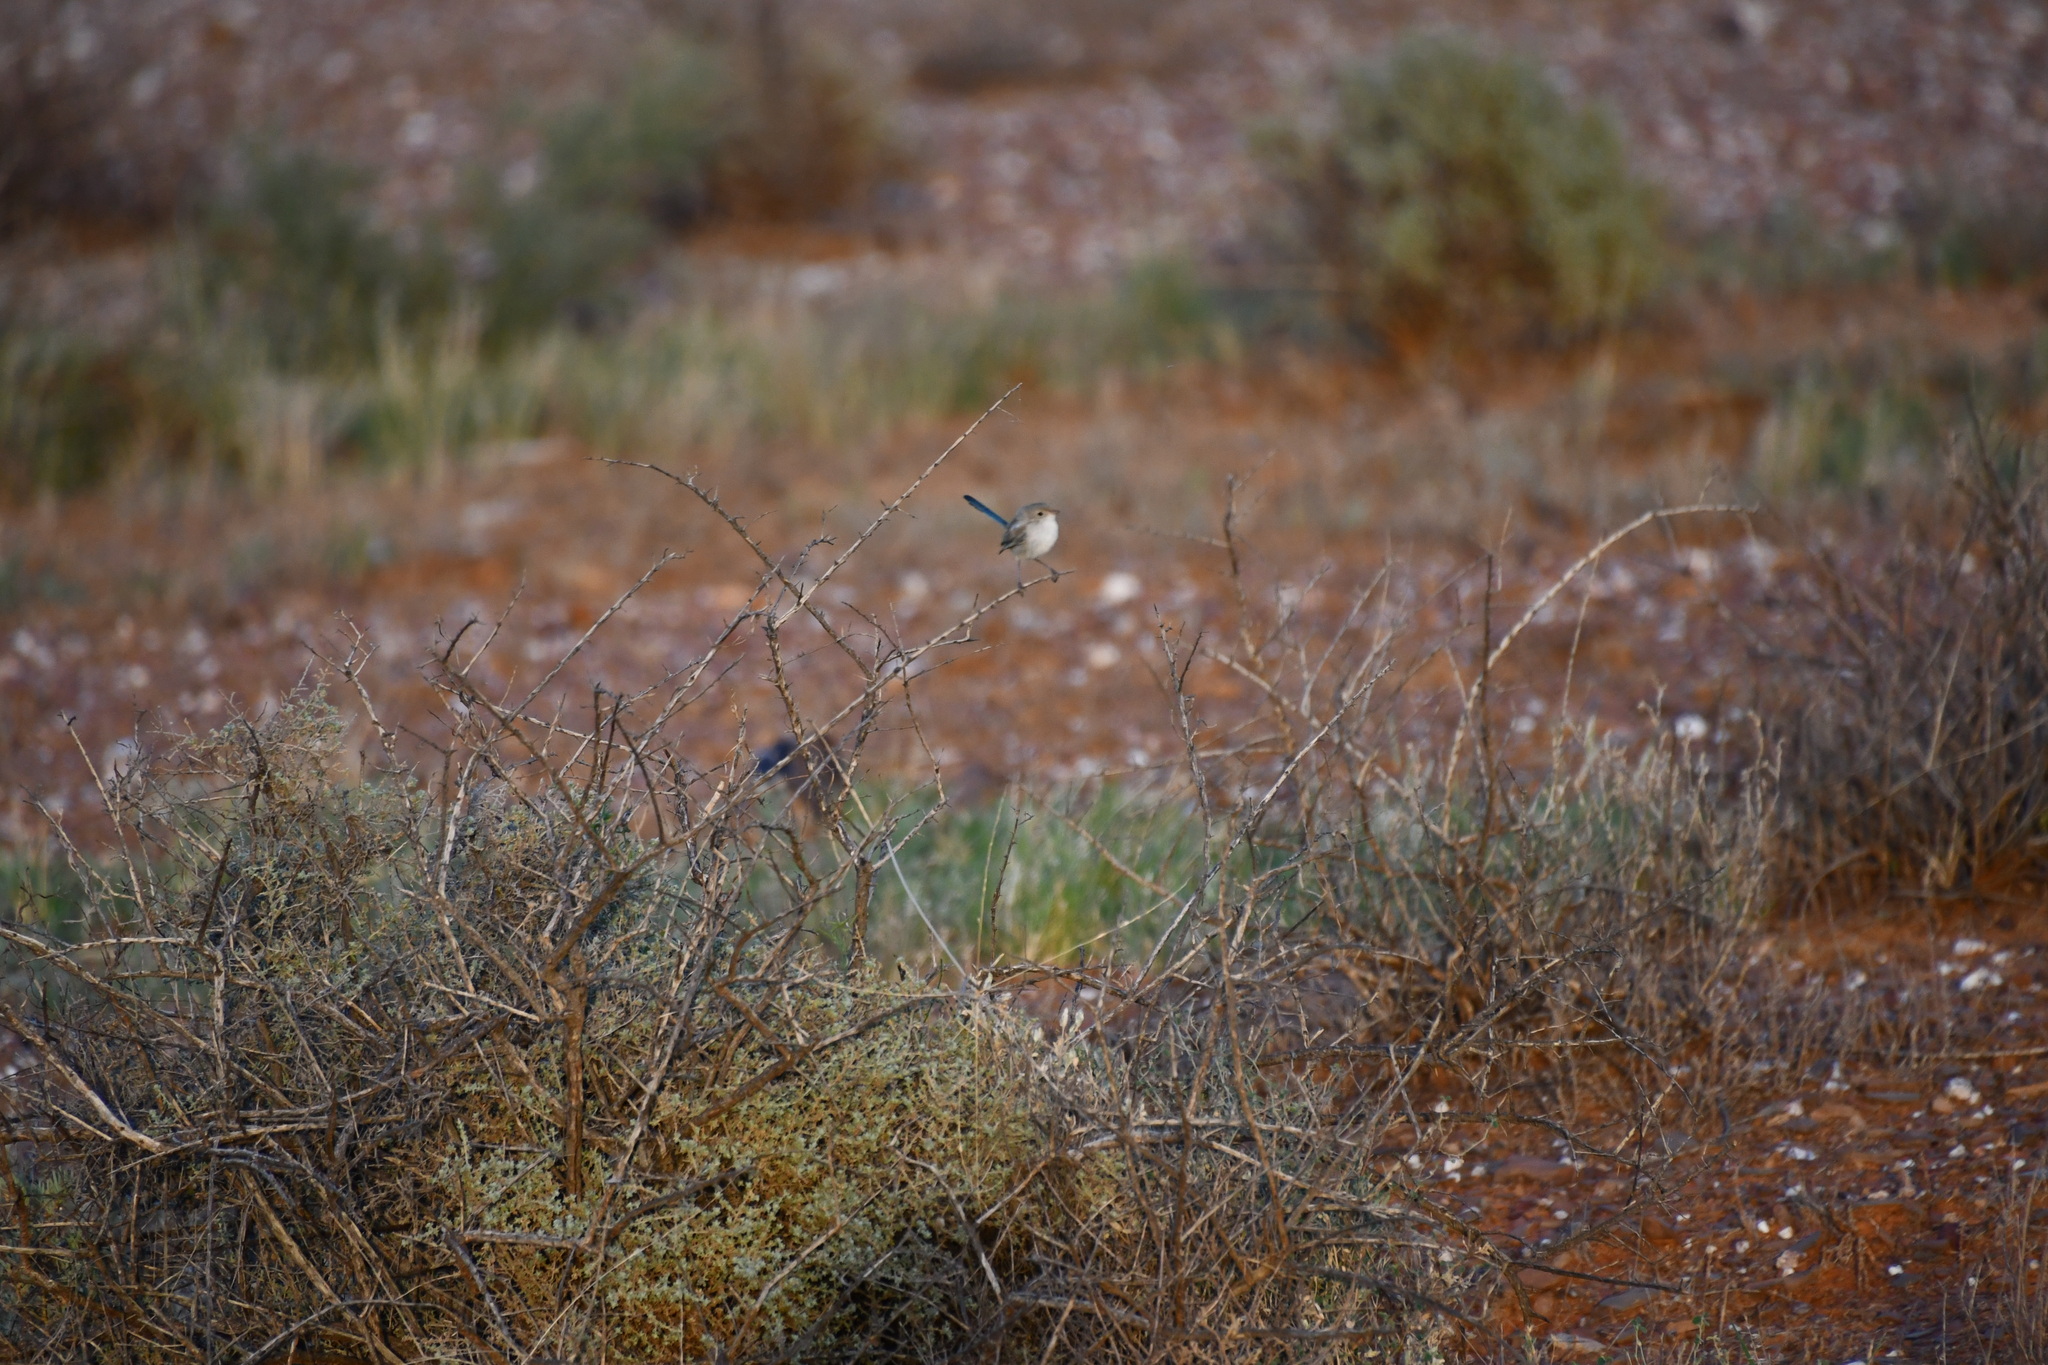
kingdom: Animalia
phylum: Chordata
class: Aves
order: Passeriformes
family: Maluridae
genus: Malurus
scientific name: Malurus leucopterus
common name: White-winged fairywren
